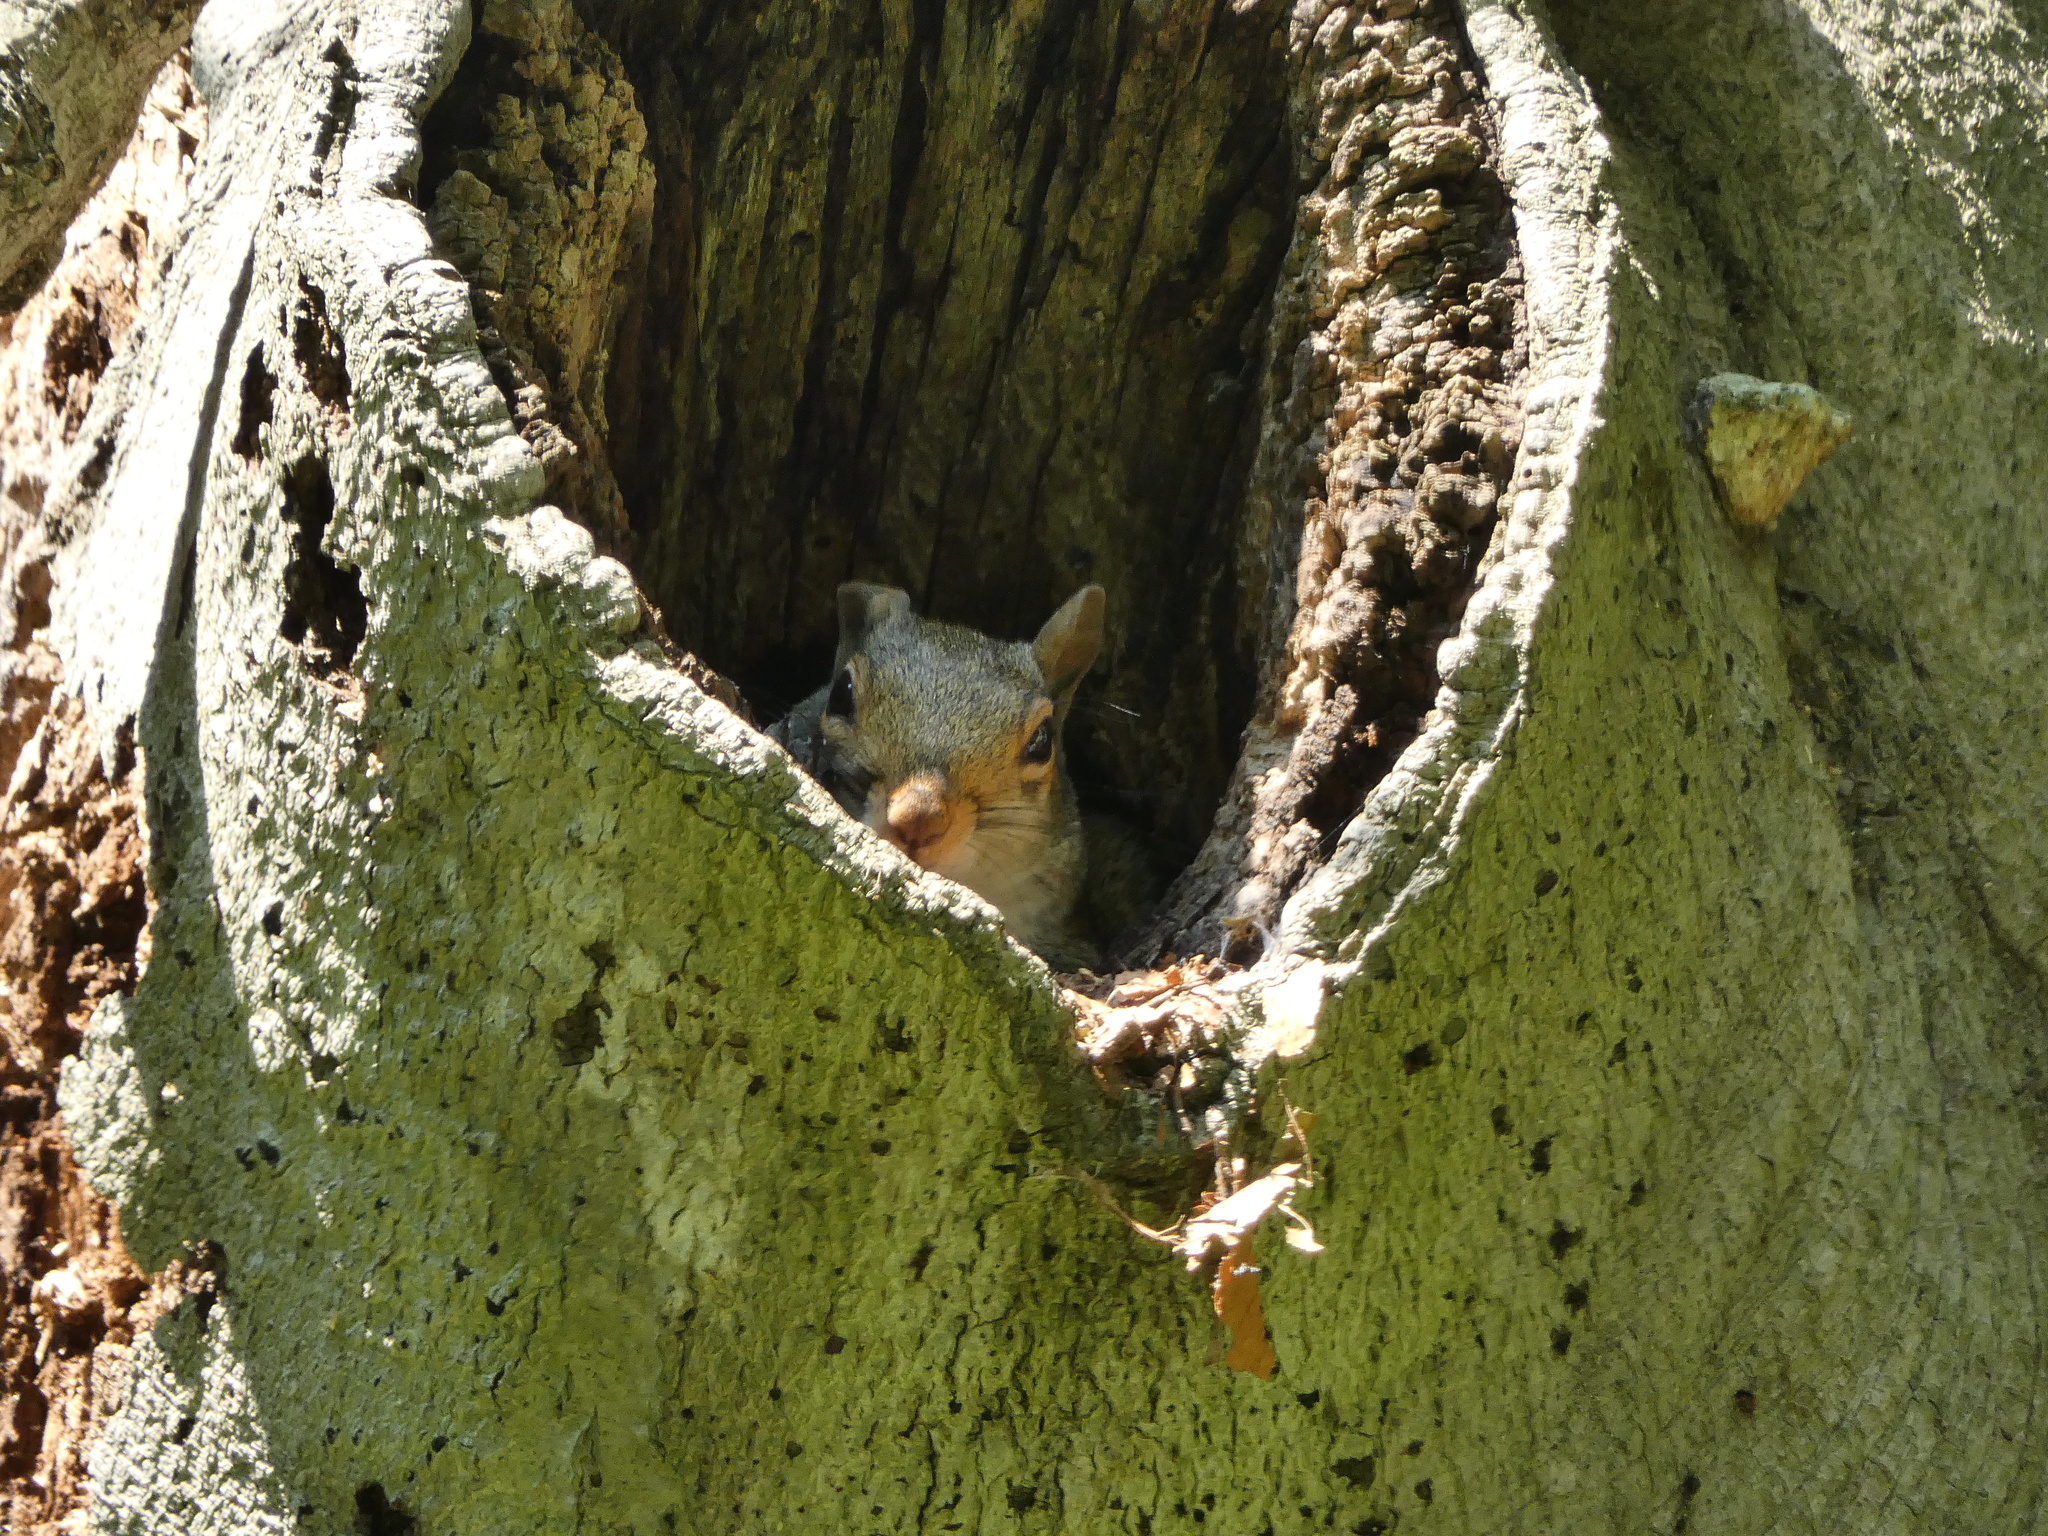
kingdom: Animalia
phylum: Chordata
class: Mammalia
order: Rodentia
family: Sciuridae
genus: Sciurus
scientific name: Sciurus carolinensis
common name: Eastern gray squirrel
